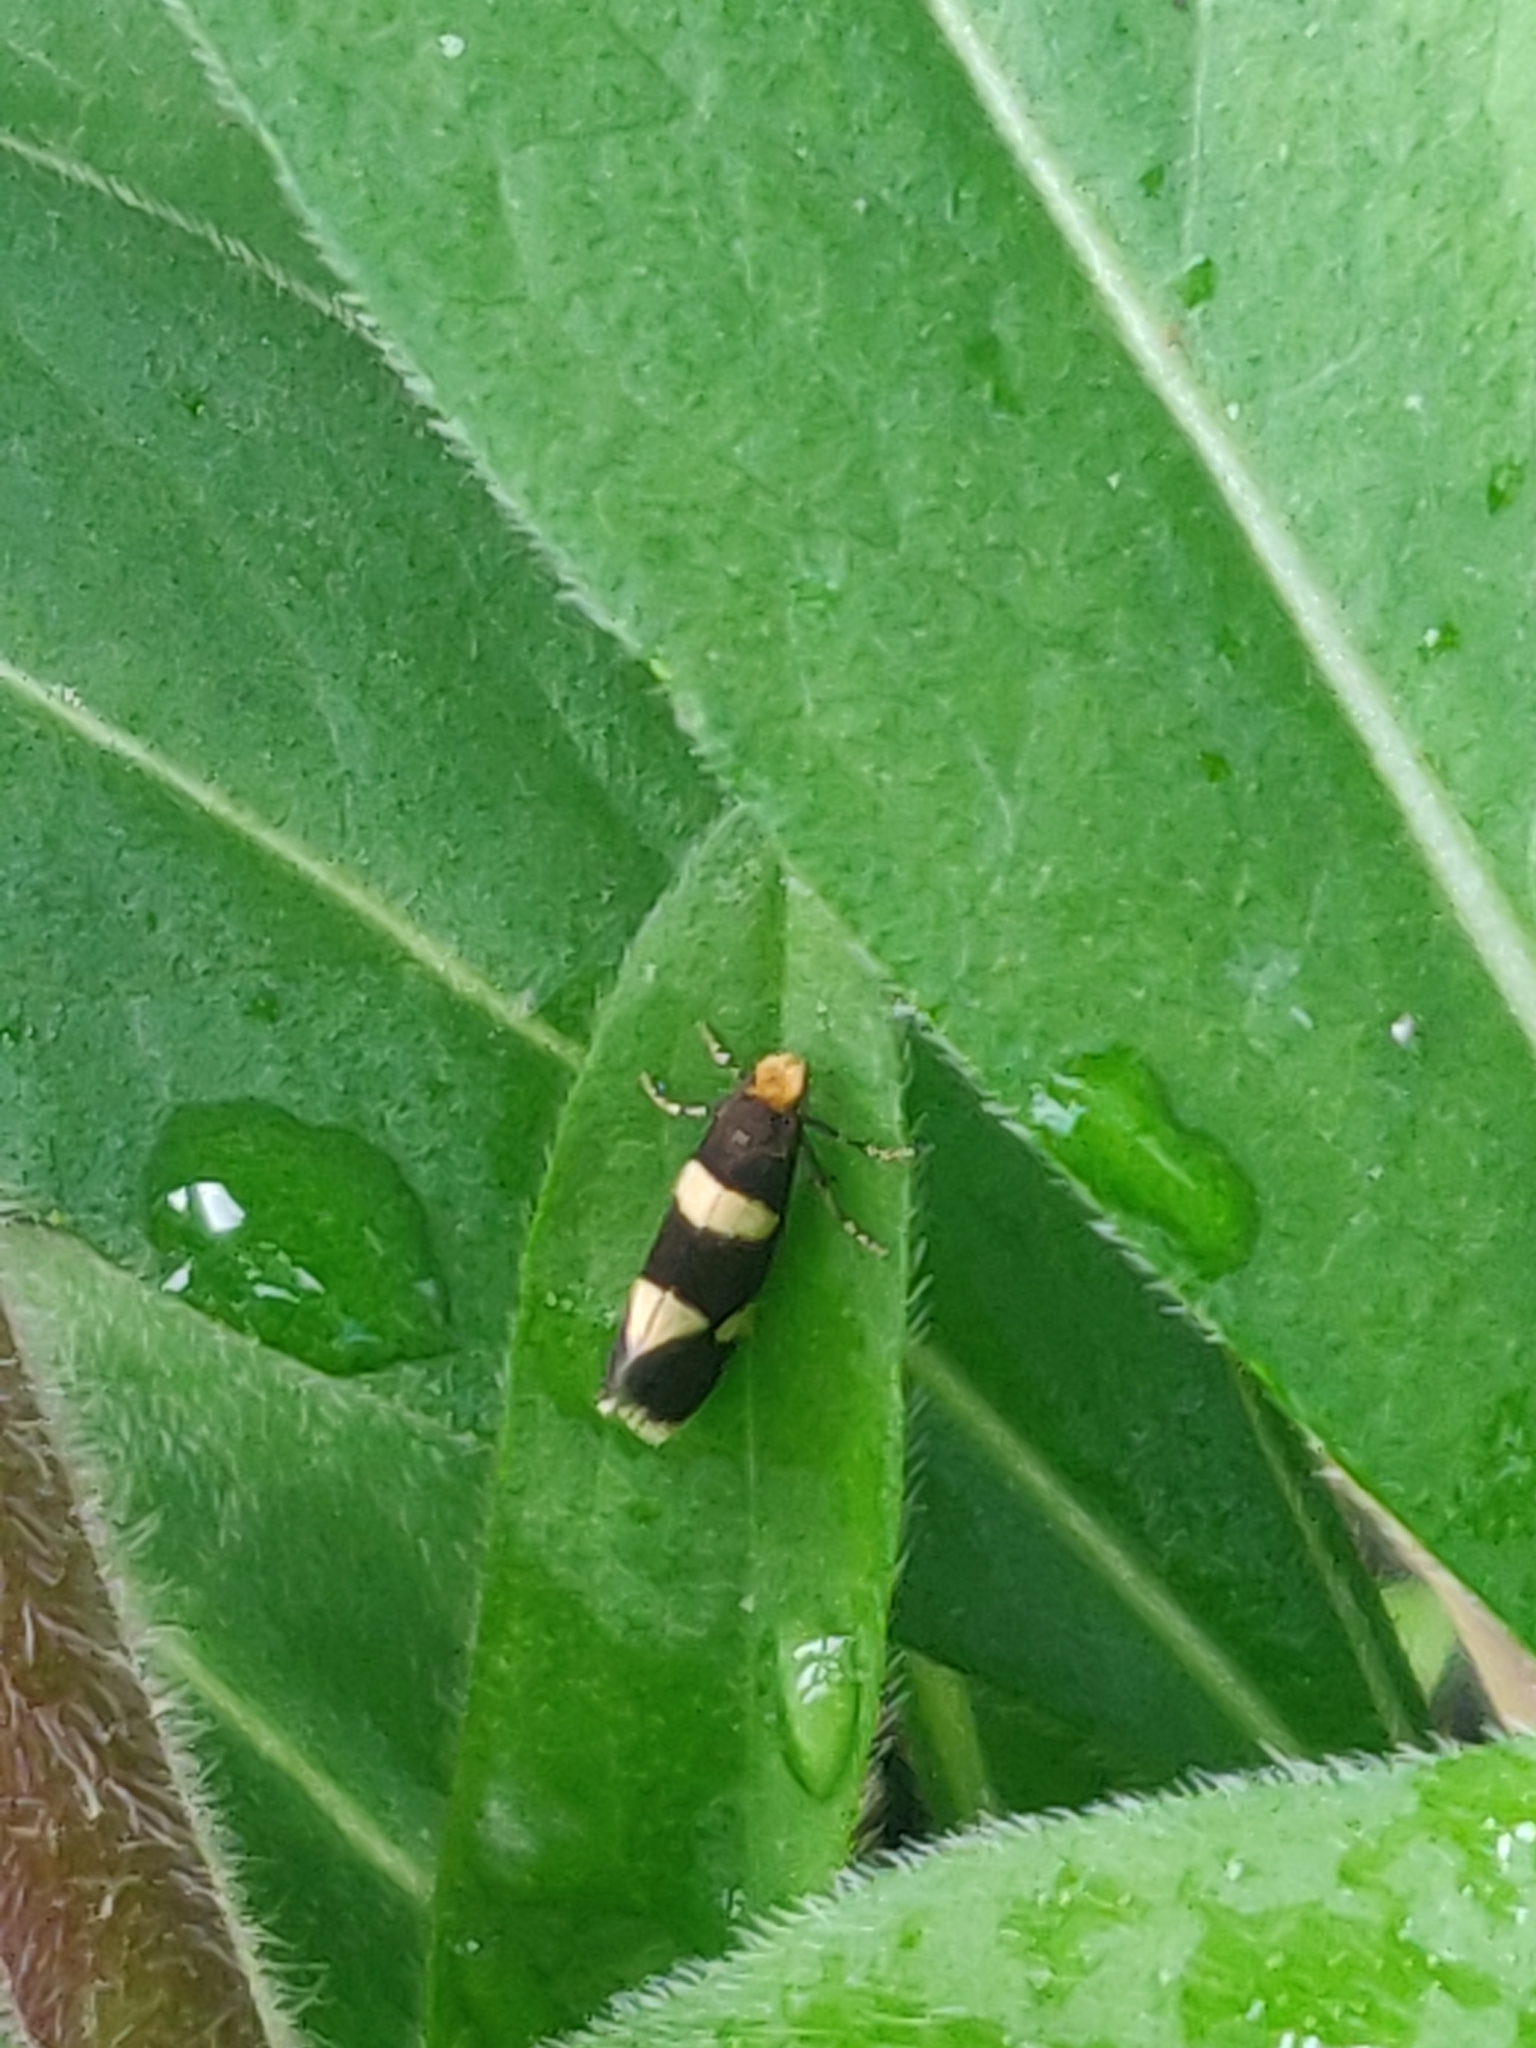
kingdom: Animalia
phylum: Arthropoda
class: Insecta
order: Lepidoptera
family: Incurvariidae
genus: Incurvaria
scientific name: Incurvaria capittella
